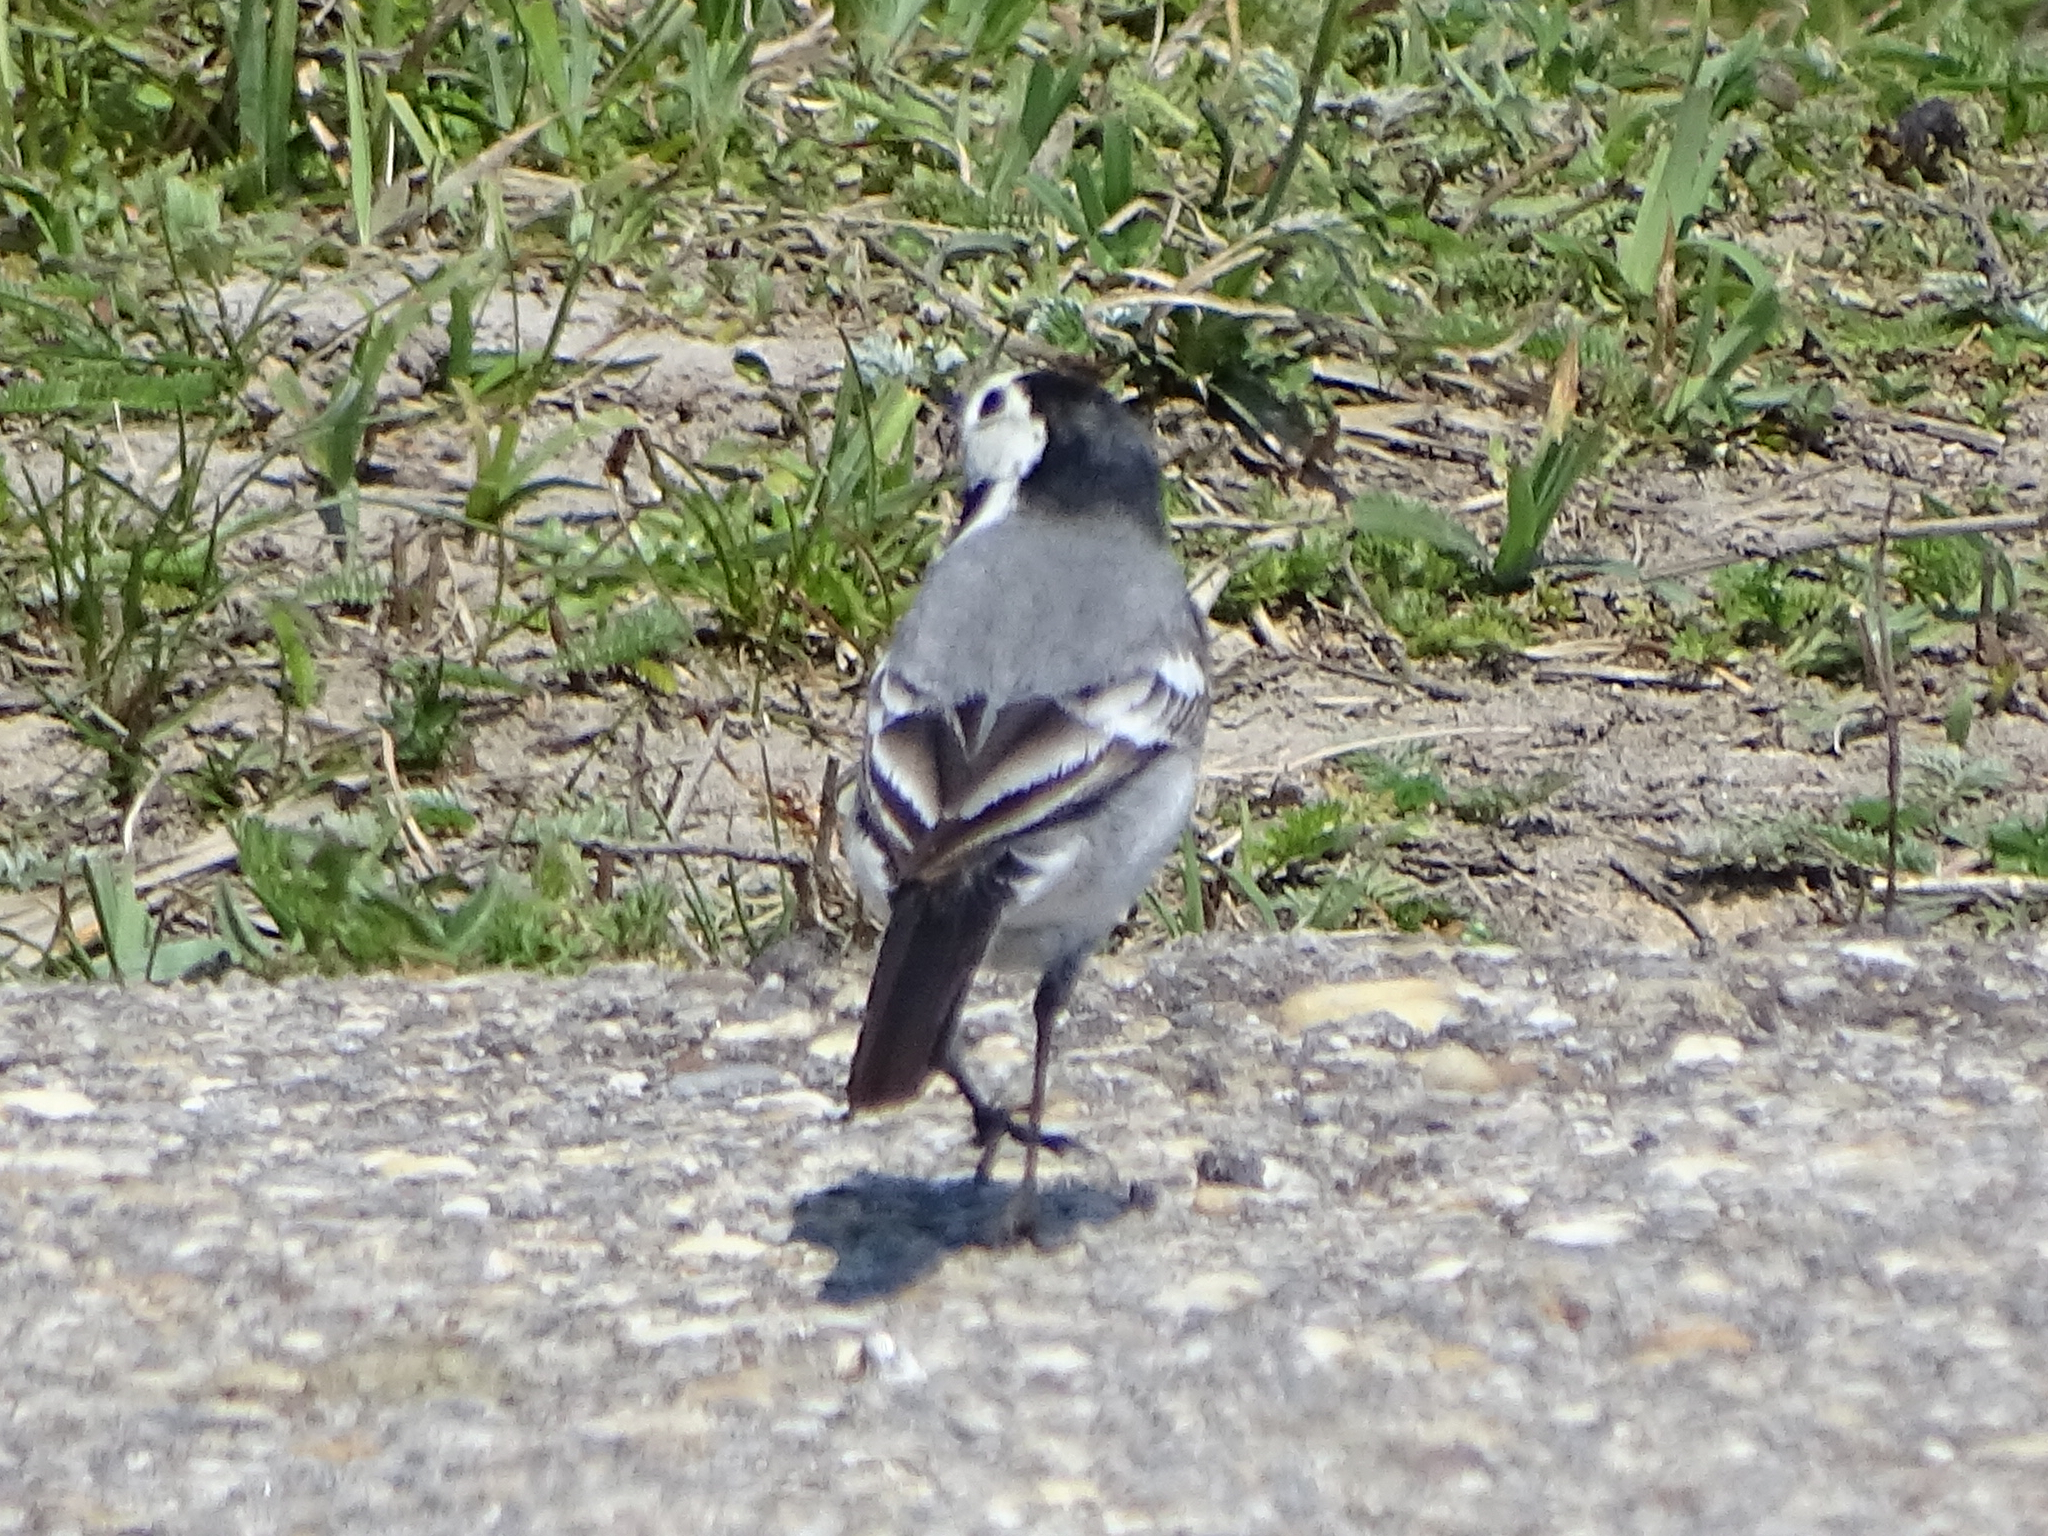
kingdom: Animalia
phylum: Chordata
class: Aves
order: Passeriformes
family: Motacillidae
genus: Motacilla
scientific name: Motacilla alba
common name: White wagtail
